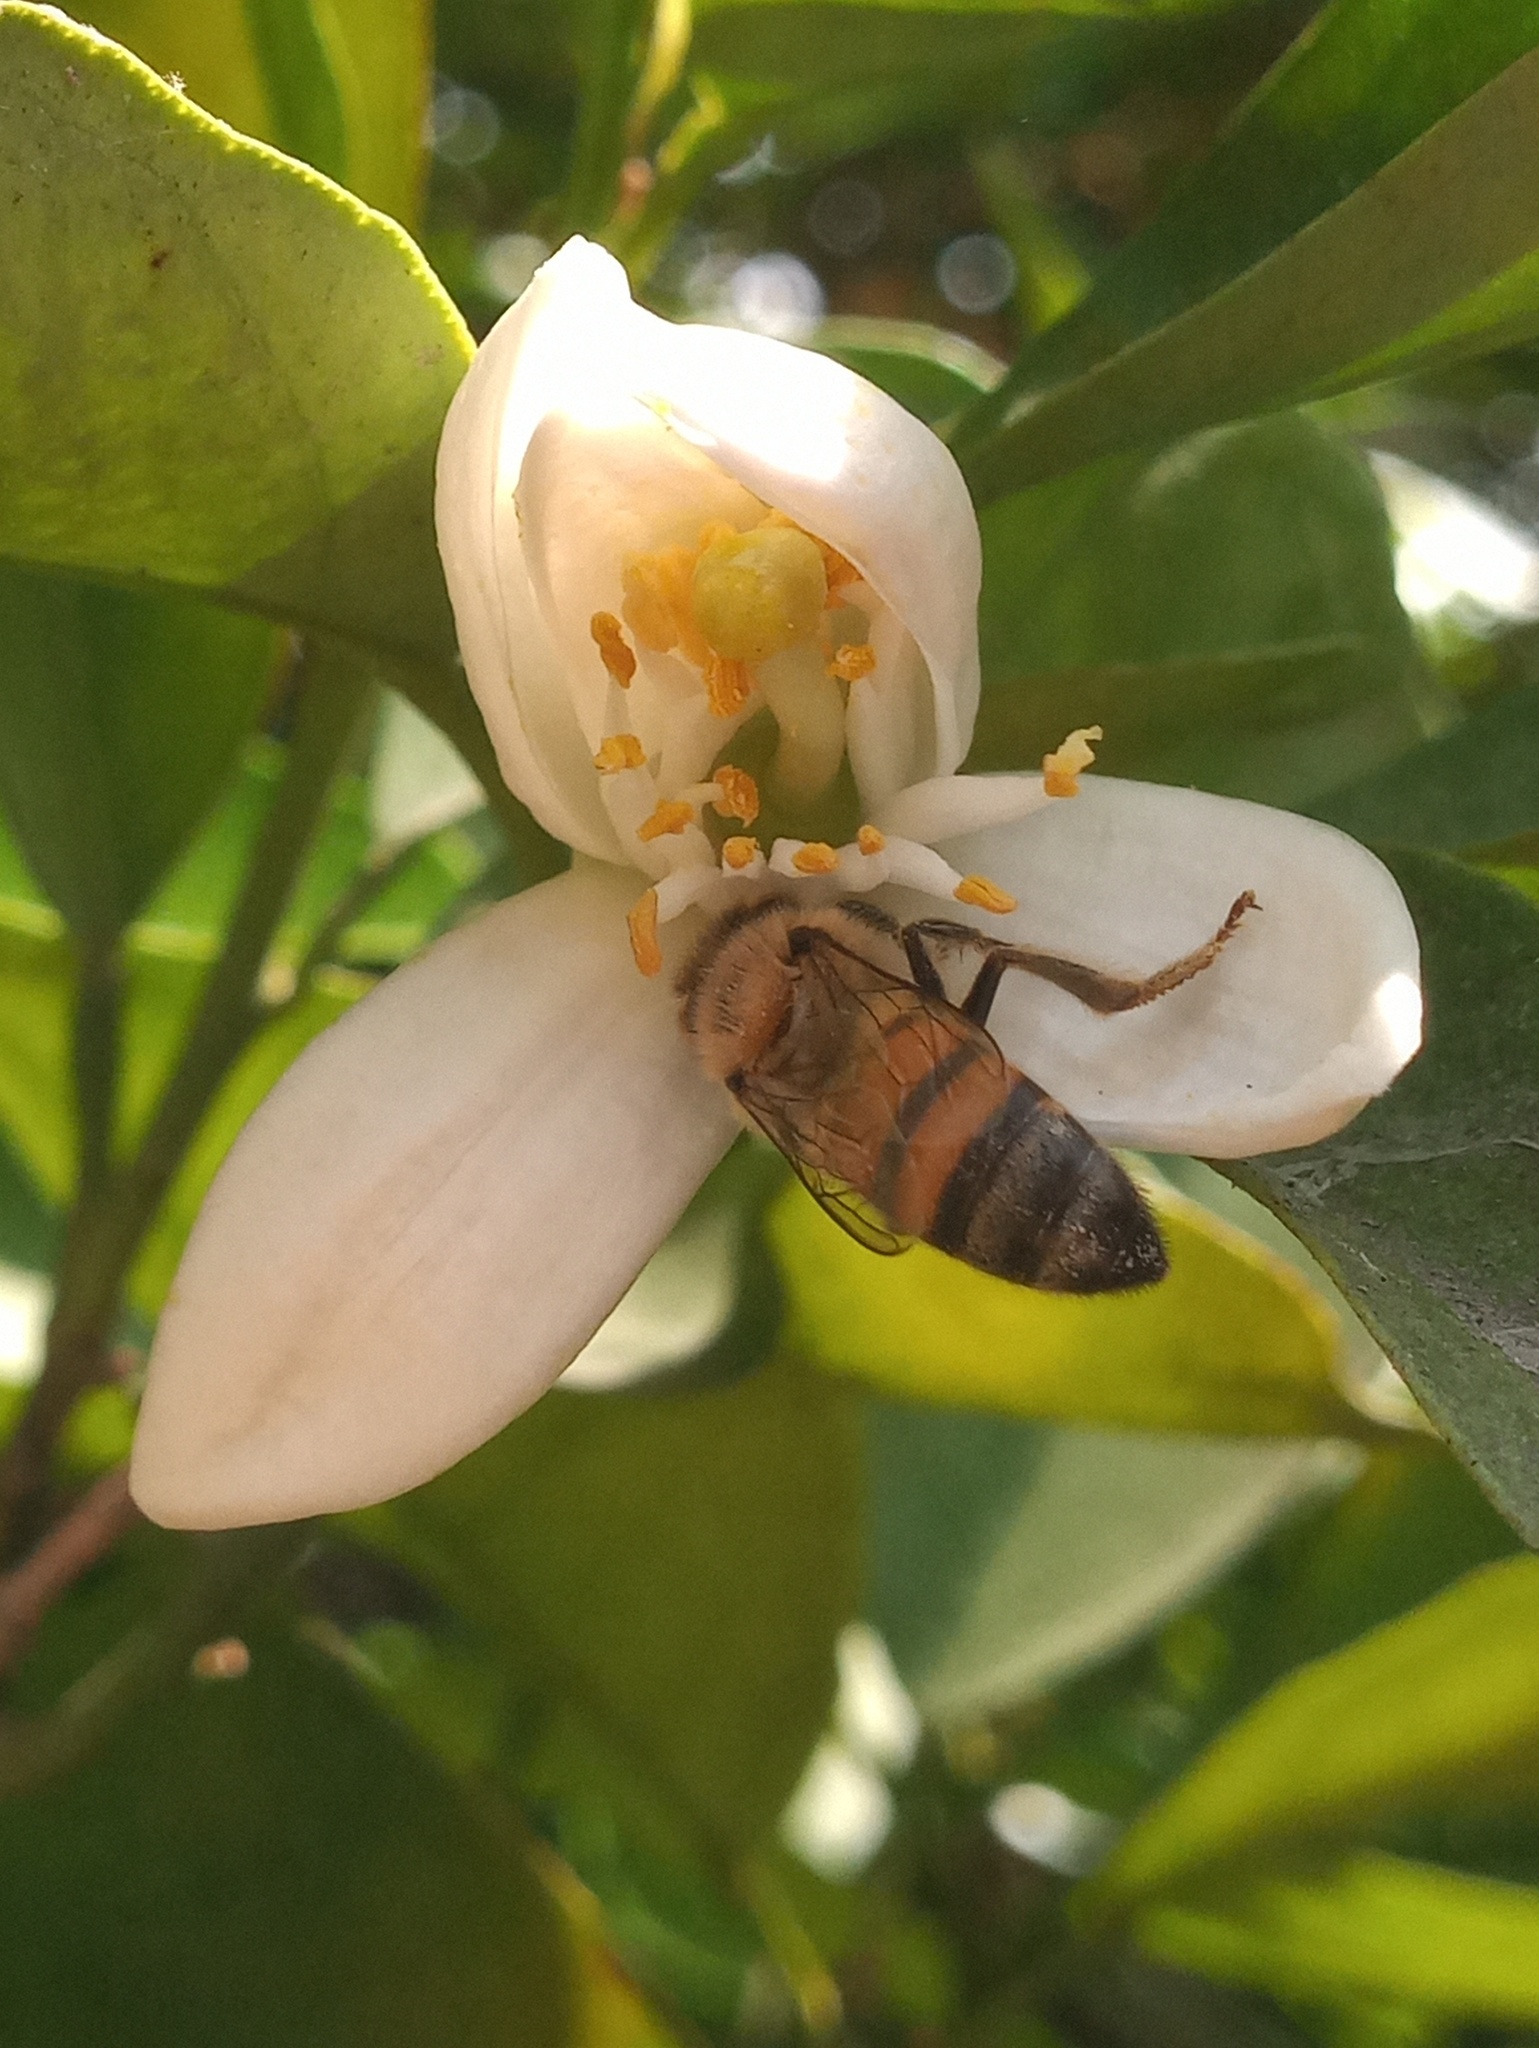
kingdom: Animalia
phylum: Arthropoda
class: Insecta
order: Hymenoptera
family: Apidae
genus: Apis
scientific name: Apis mellifera
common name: Honey bee
